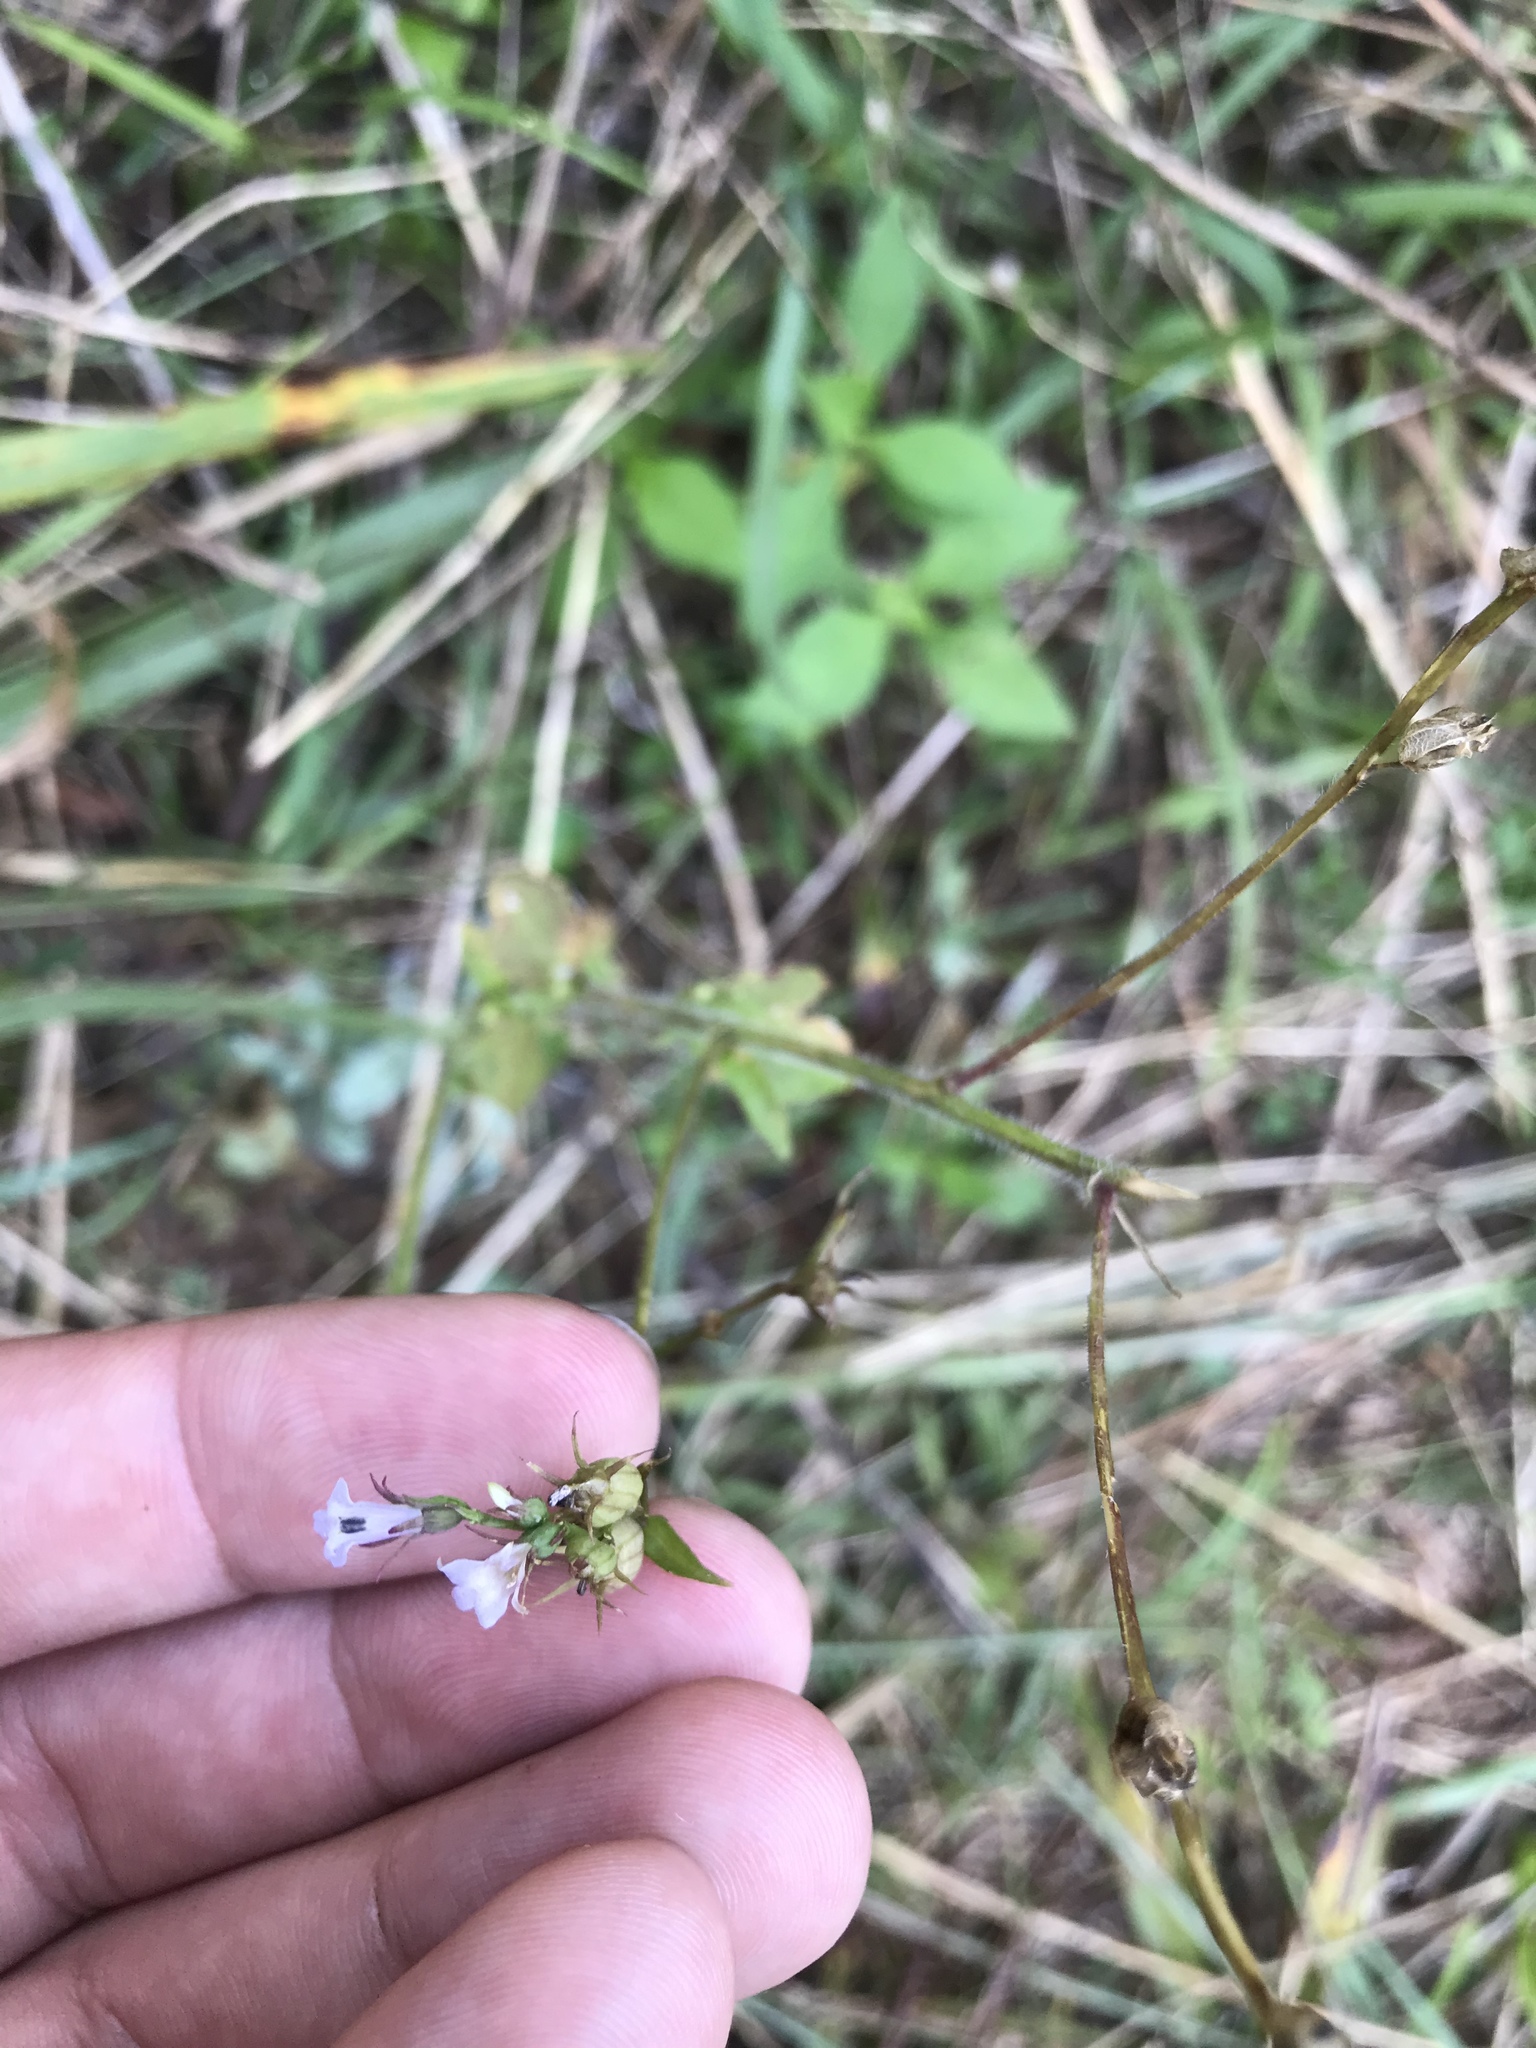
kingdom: Plantae
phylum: Tracheophyta
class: Magnoliopsida
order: Asterales
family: Campanulaceae
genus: Lobelia
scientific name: Lobelia inflata
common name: Indian tobacco
